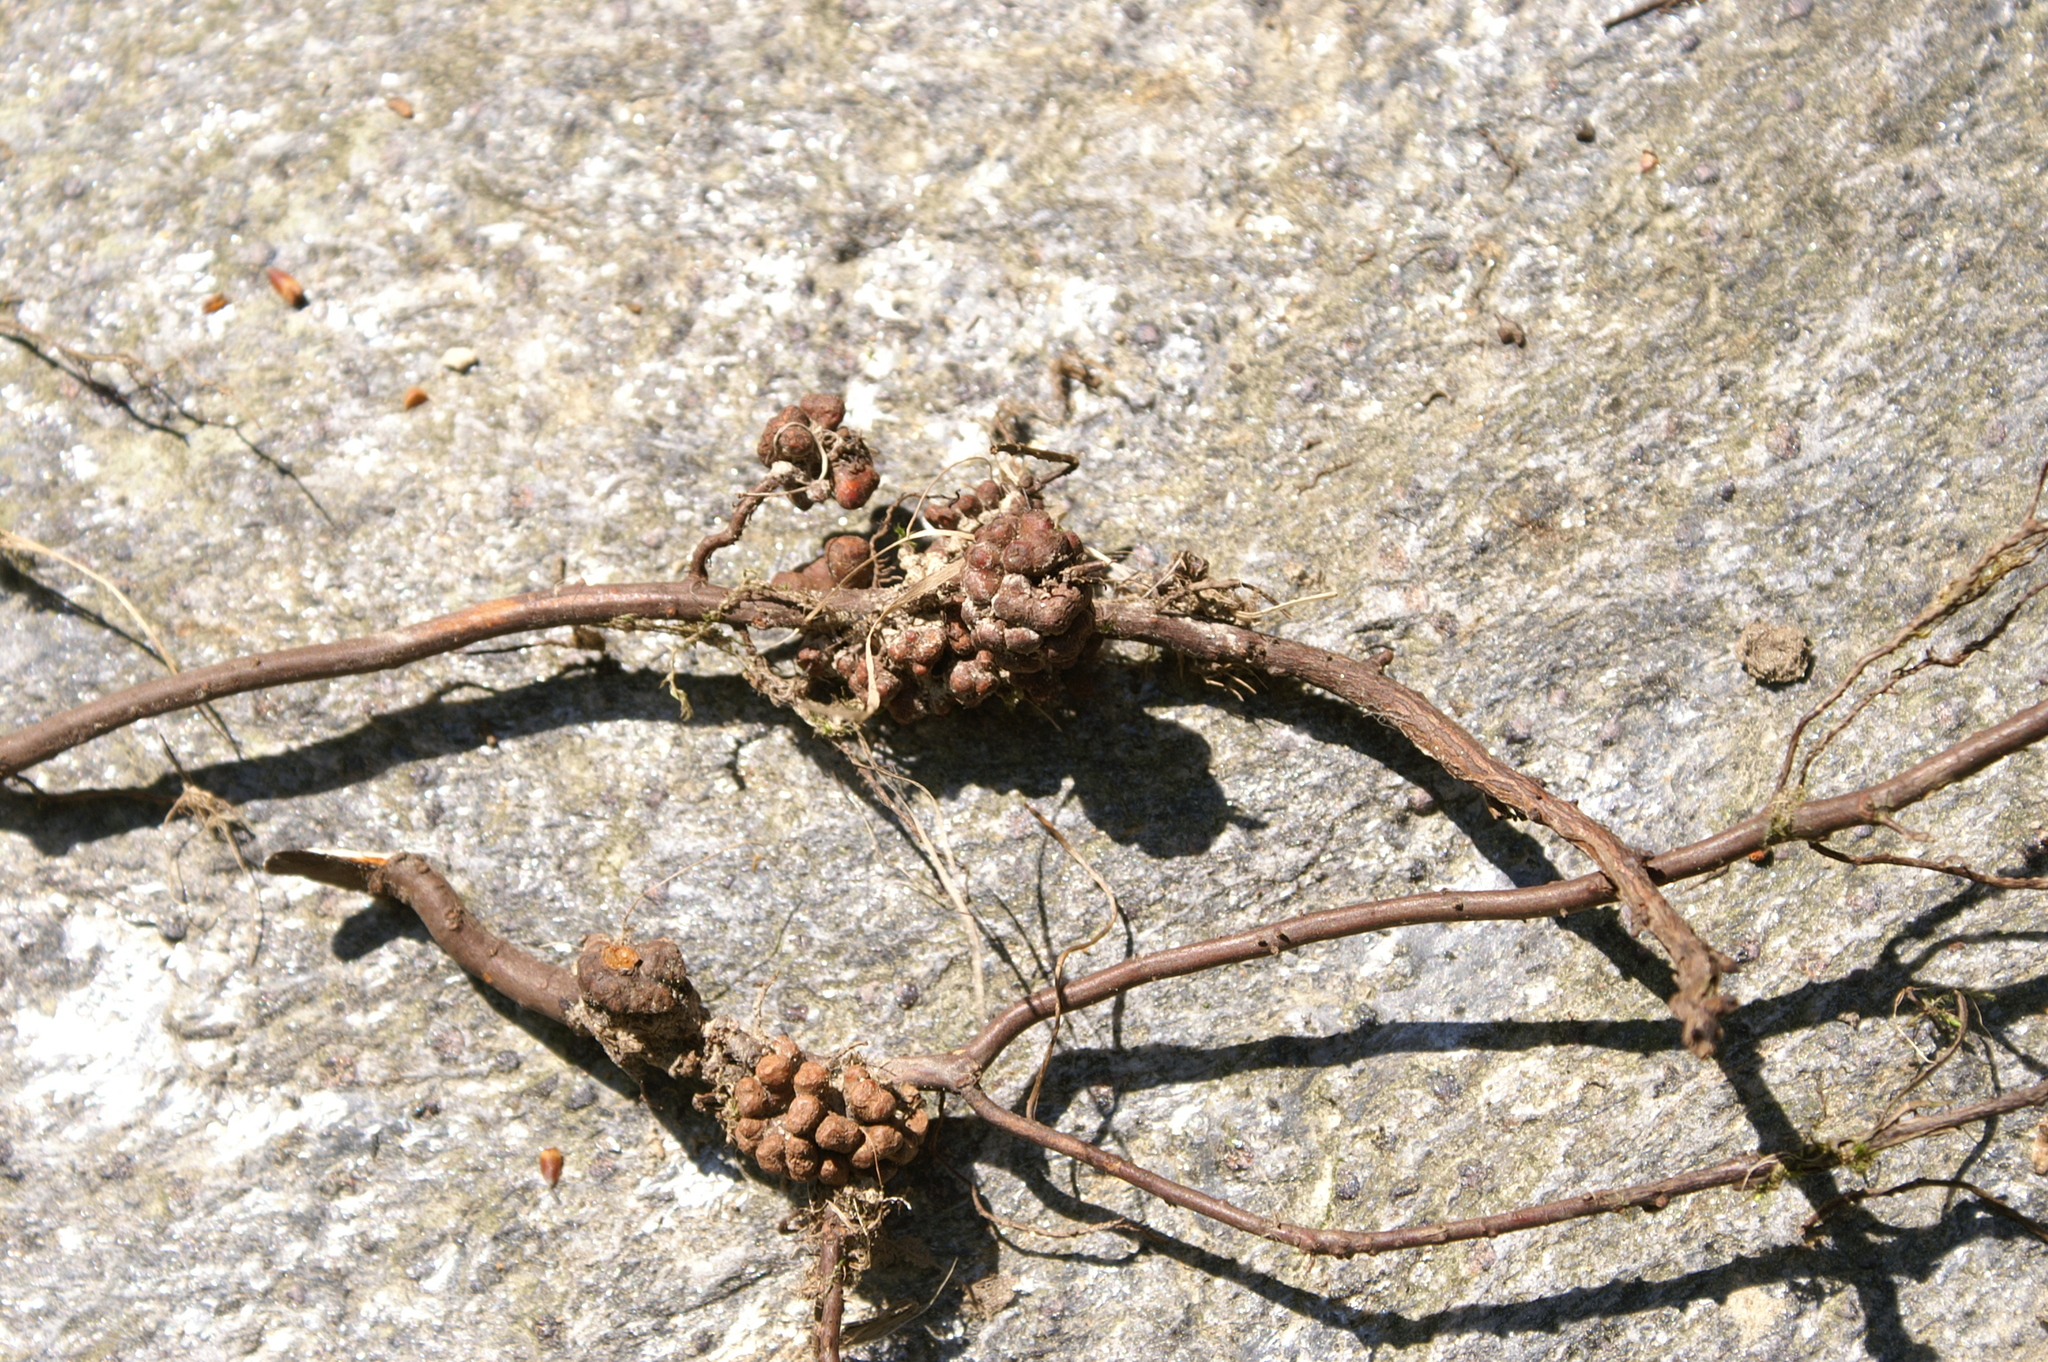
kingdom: Bacteria
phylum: Actinobacteriota
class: Actinomycetia
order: Mycobacteriales
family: Frankiaceae
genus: Frankia
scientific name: Frankia alni
